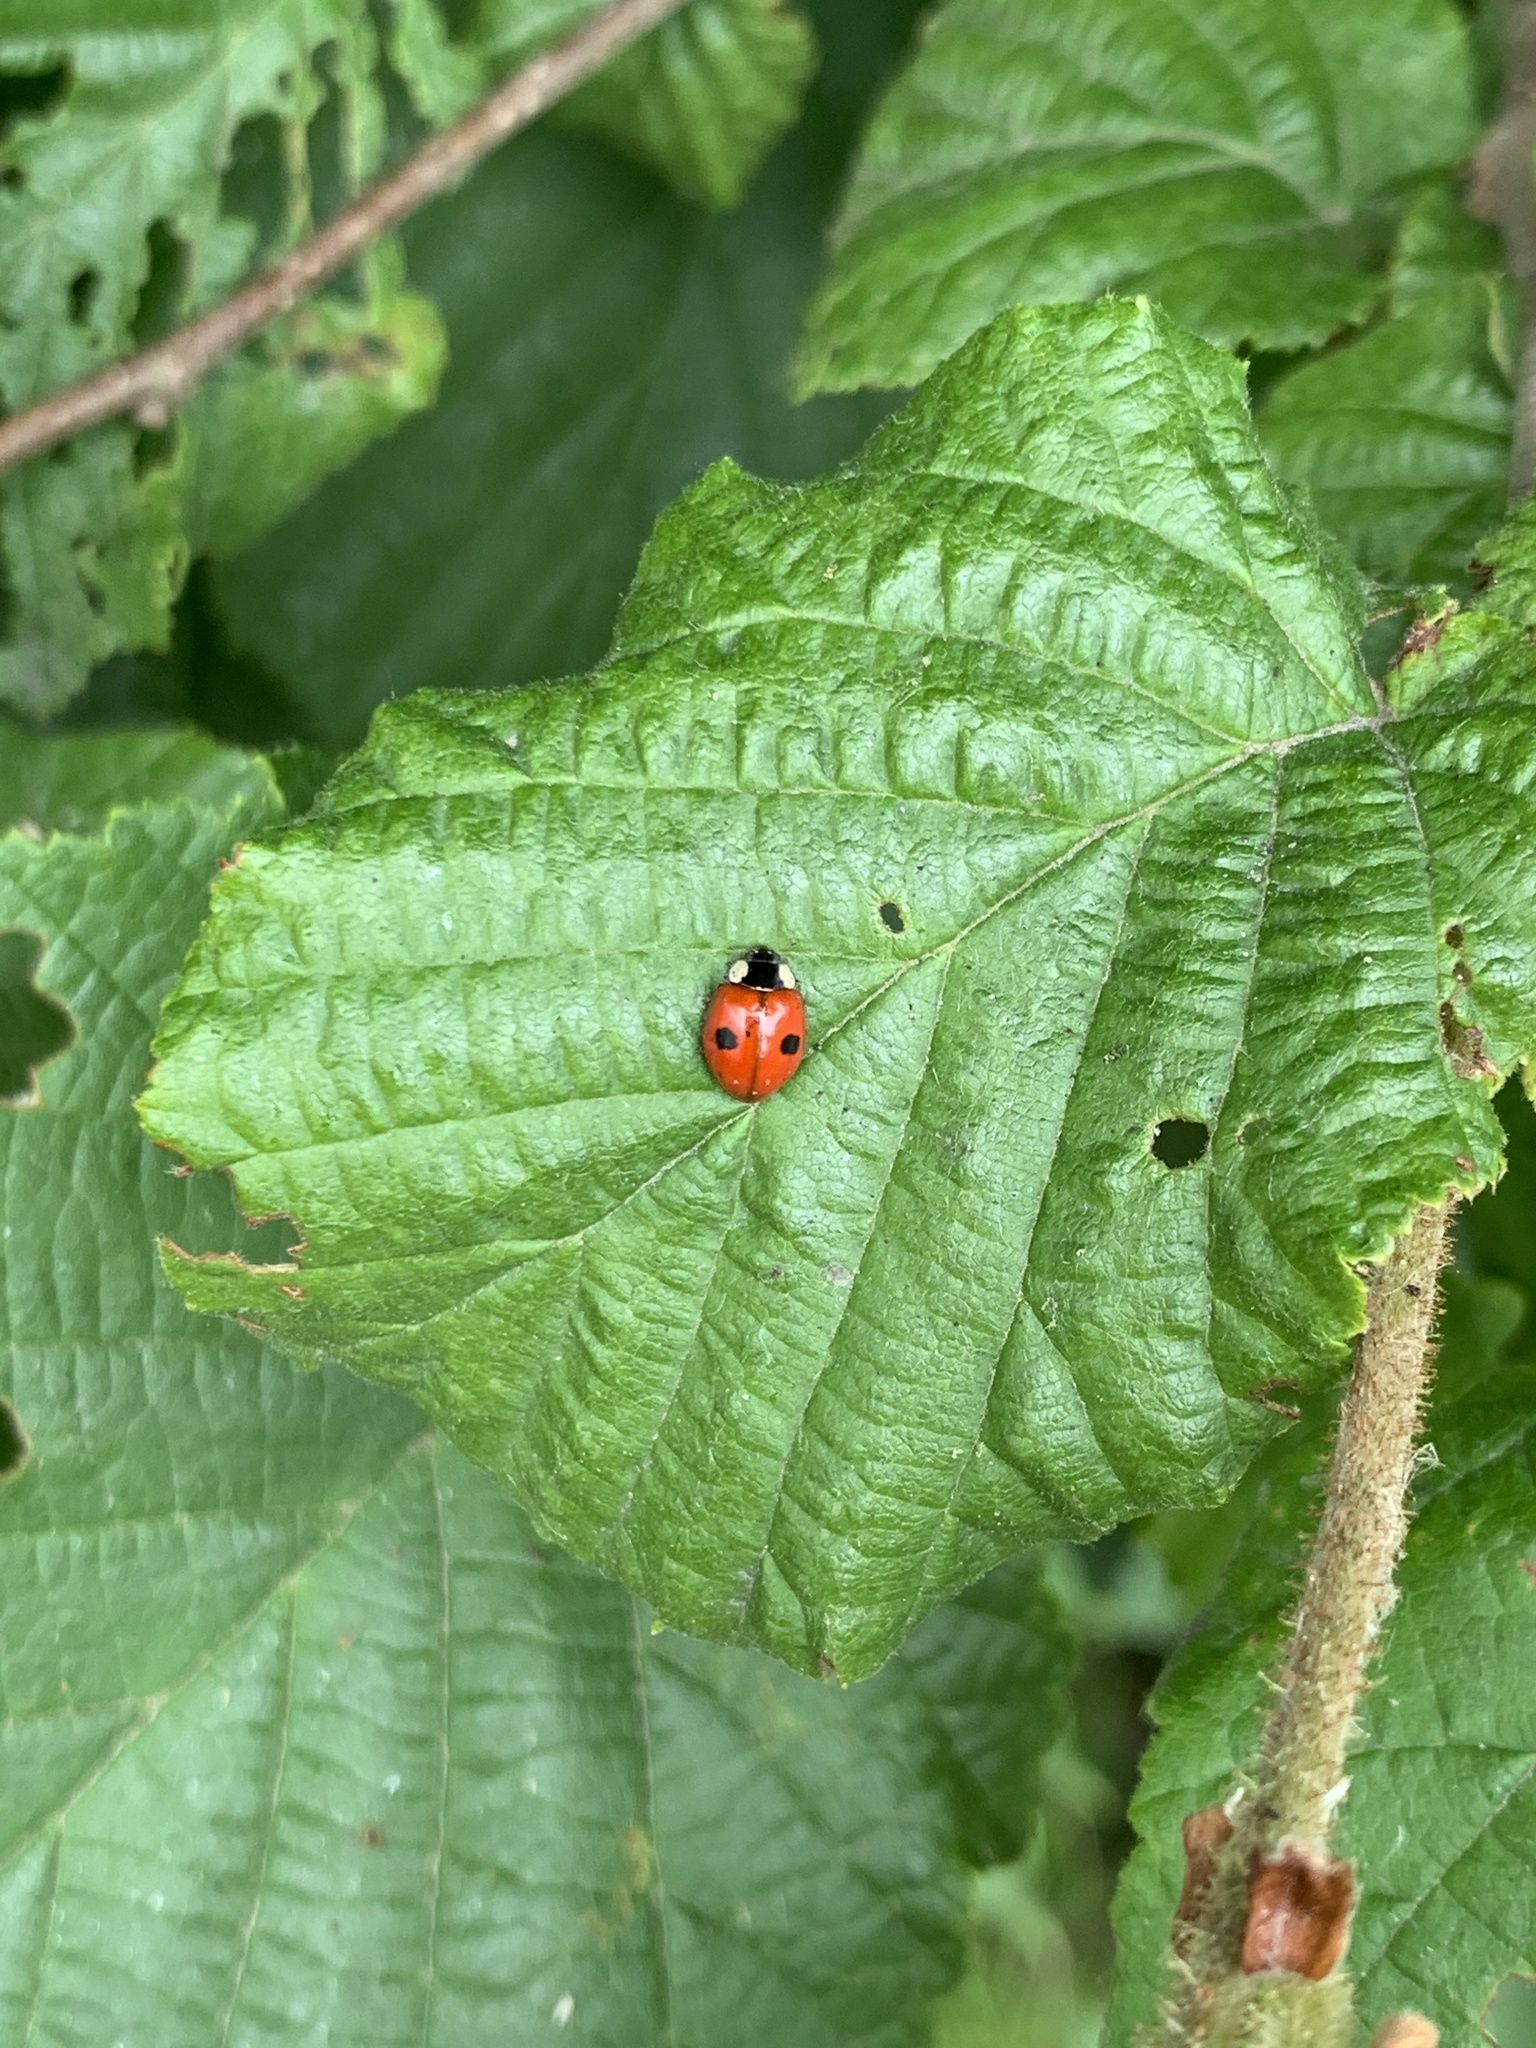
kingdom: Animalia
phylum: Arthropoda
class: Insecta
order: Coleoptera
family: Coccinellidae
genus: Adalia
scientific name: Adalia bipunctata
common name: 2-spot ladybird
